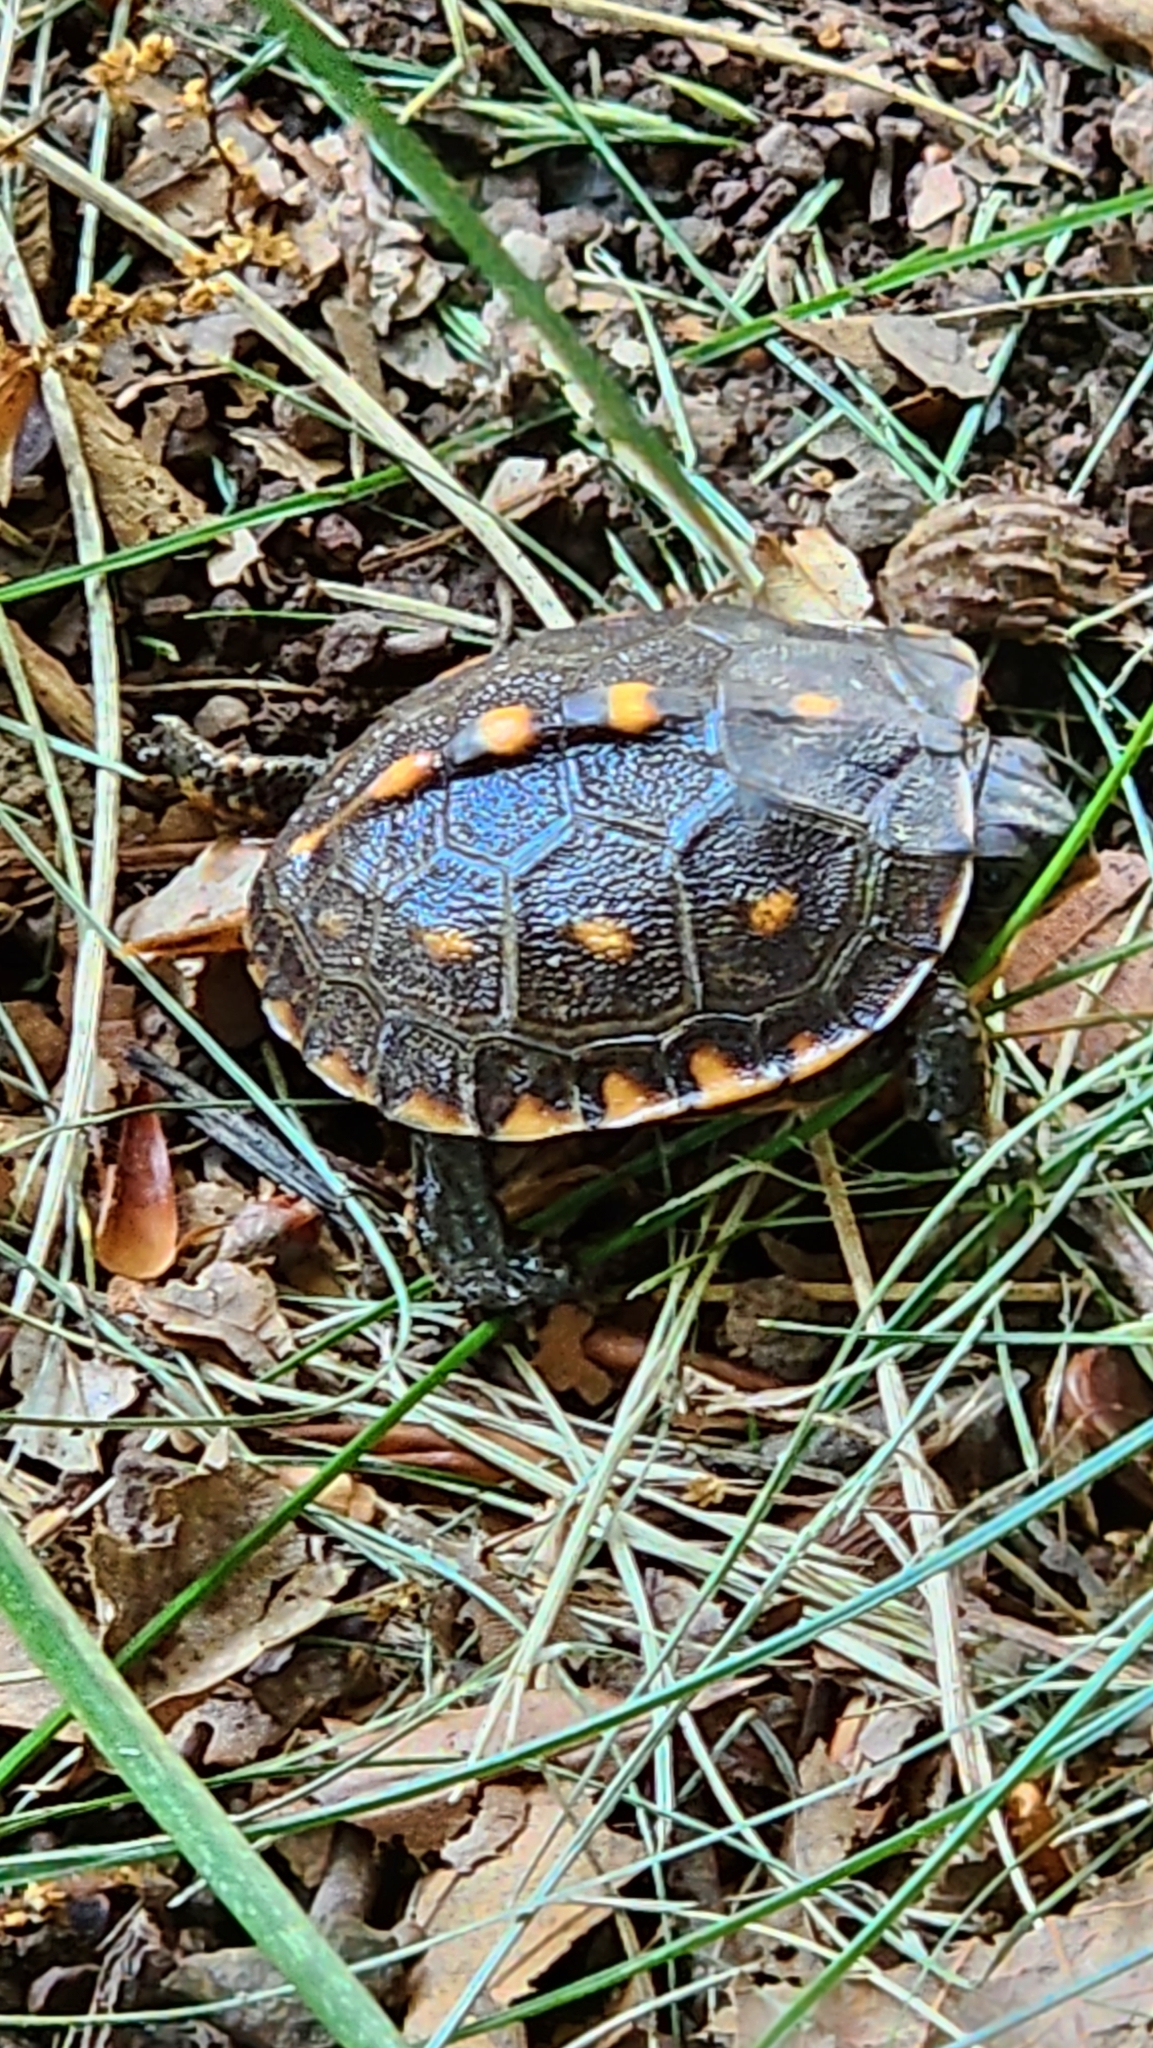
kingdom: Animalia
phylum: Chordata
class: Testudines
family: Emydidae
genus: Terrapene
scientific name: Terrapene carolina
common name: Common box turtle
